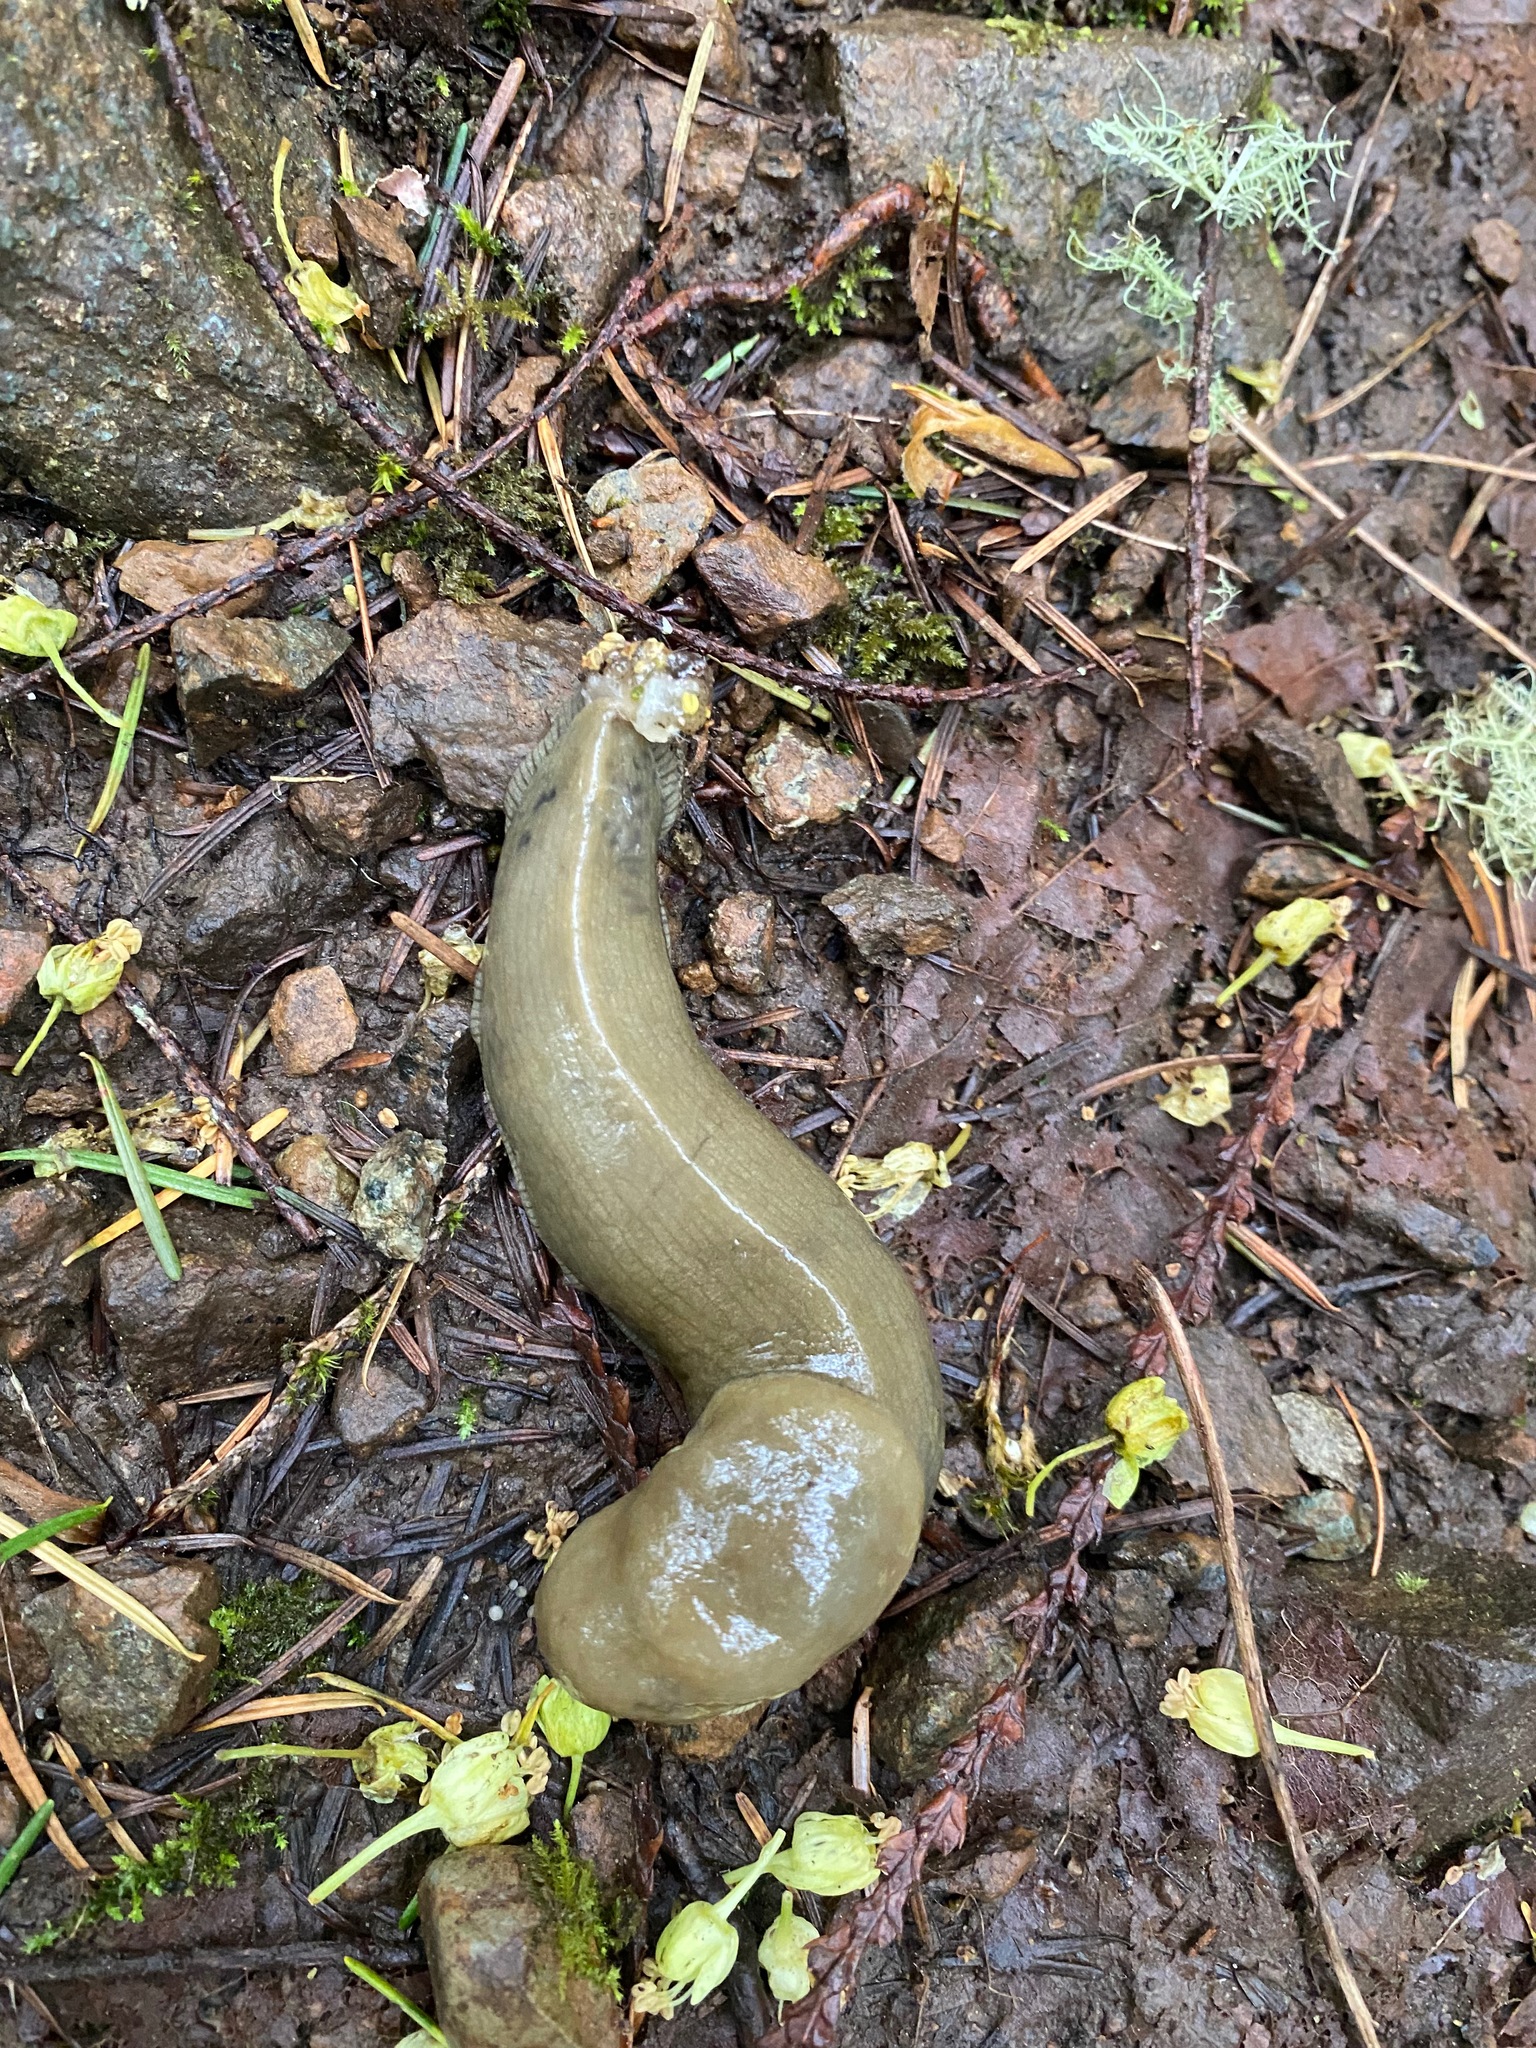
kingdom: Animalia
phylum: Mollusca
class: Gastropoda
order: Stylommatophora
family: Ariolimacidae
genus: Ariolimax
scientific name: Ariolimax columbianus
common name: Pacific banana slug
